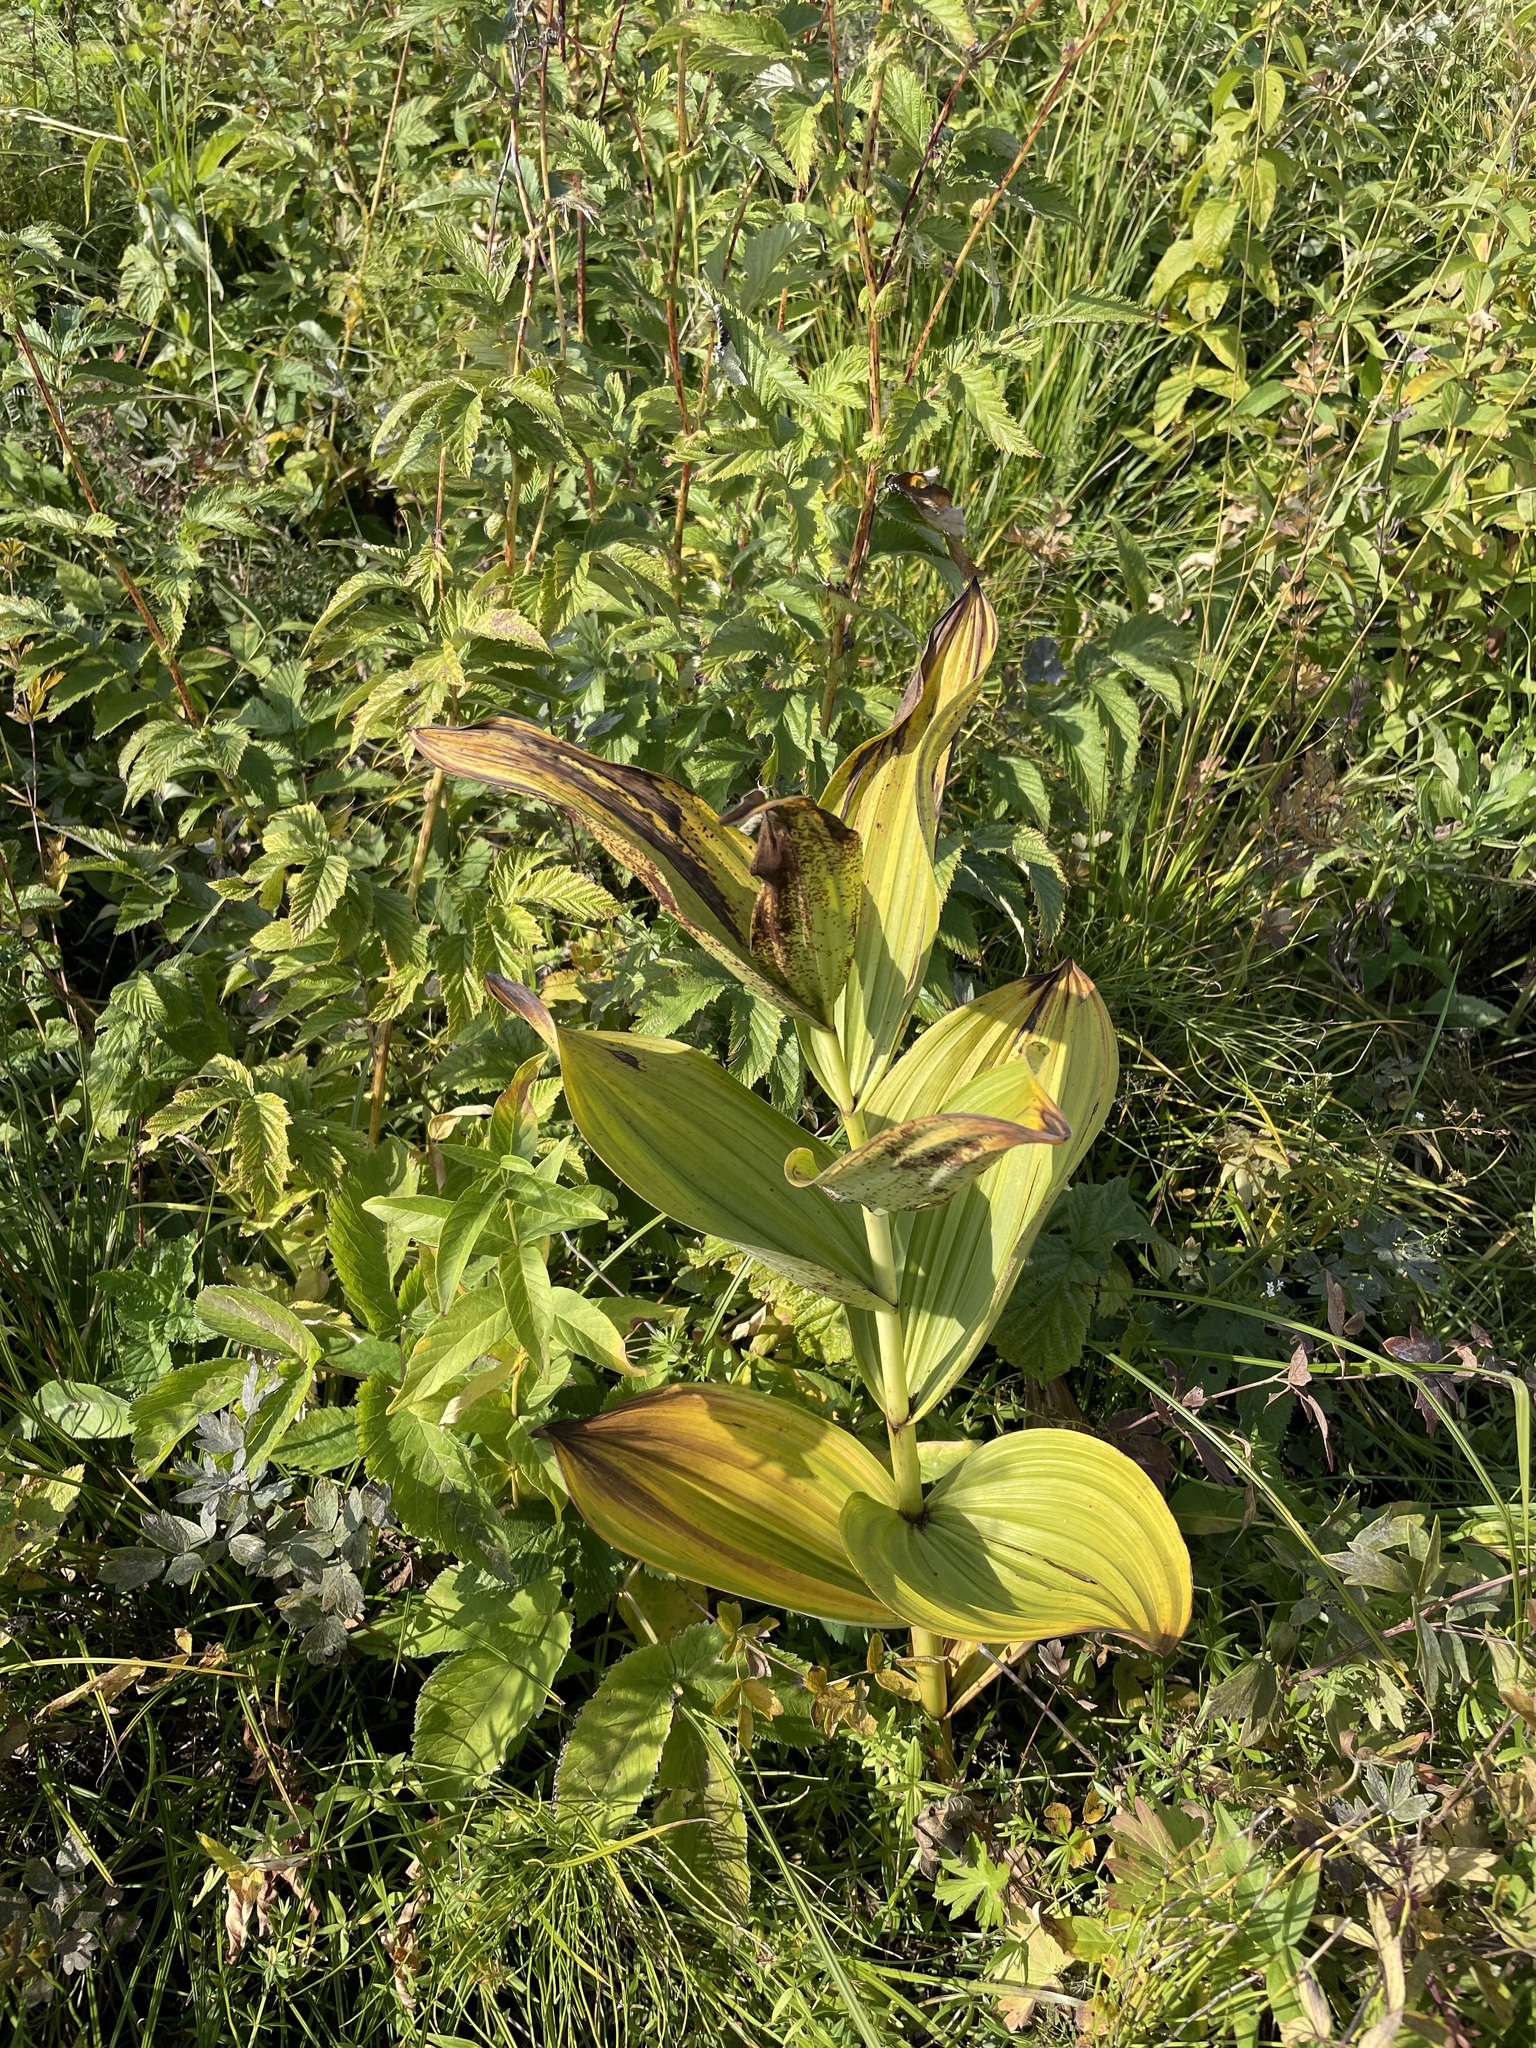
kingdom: Plantae
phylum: Tracheophyta
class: Liliopsida
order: Liliales
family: Melanthiaceae
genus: Veratrum
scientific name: Veratrum lobelianum
